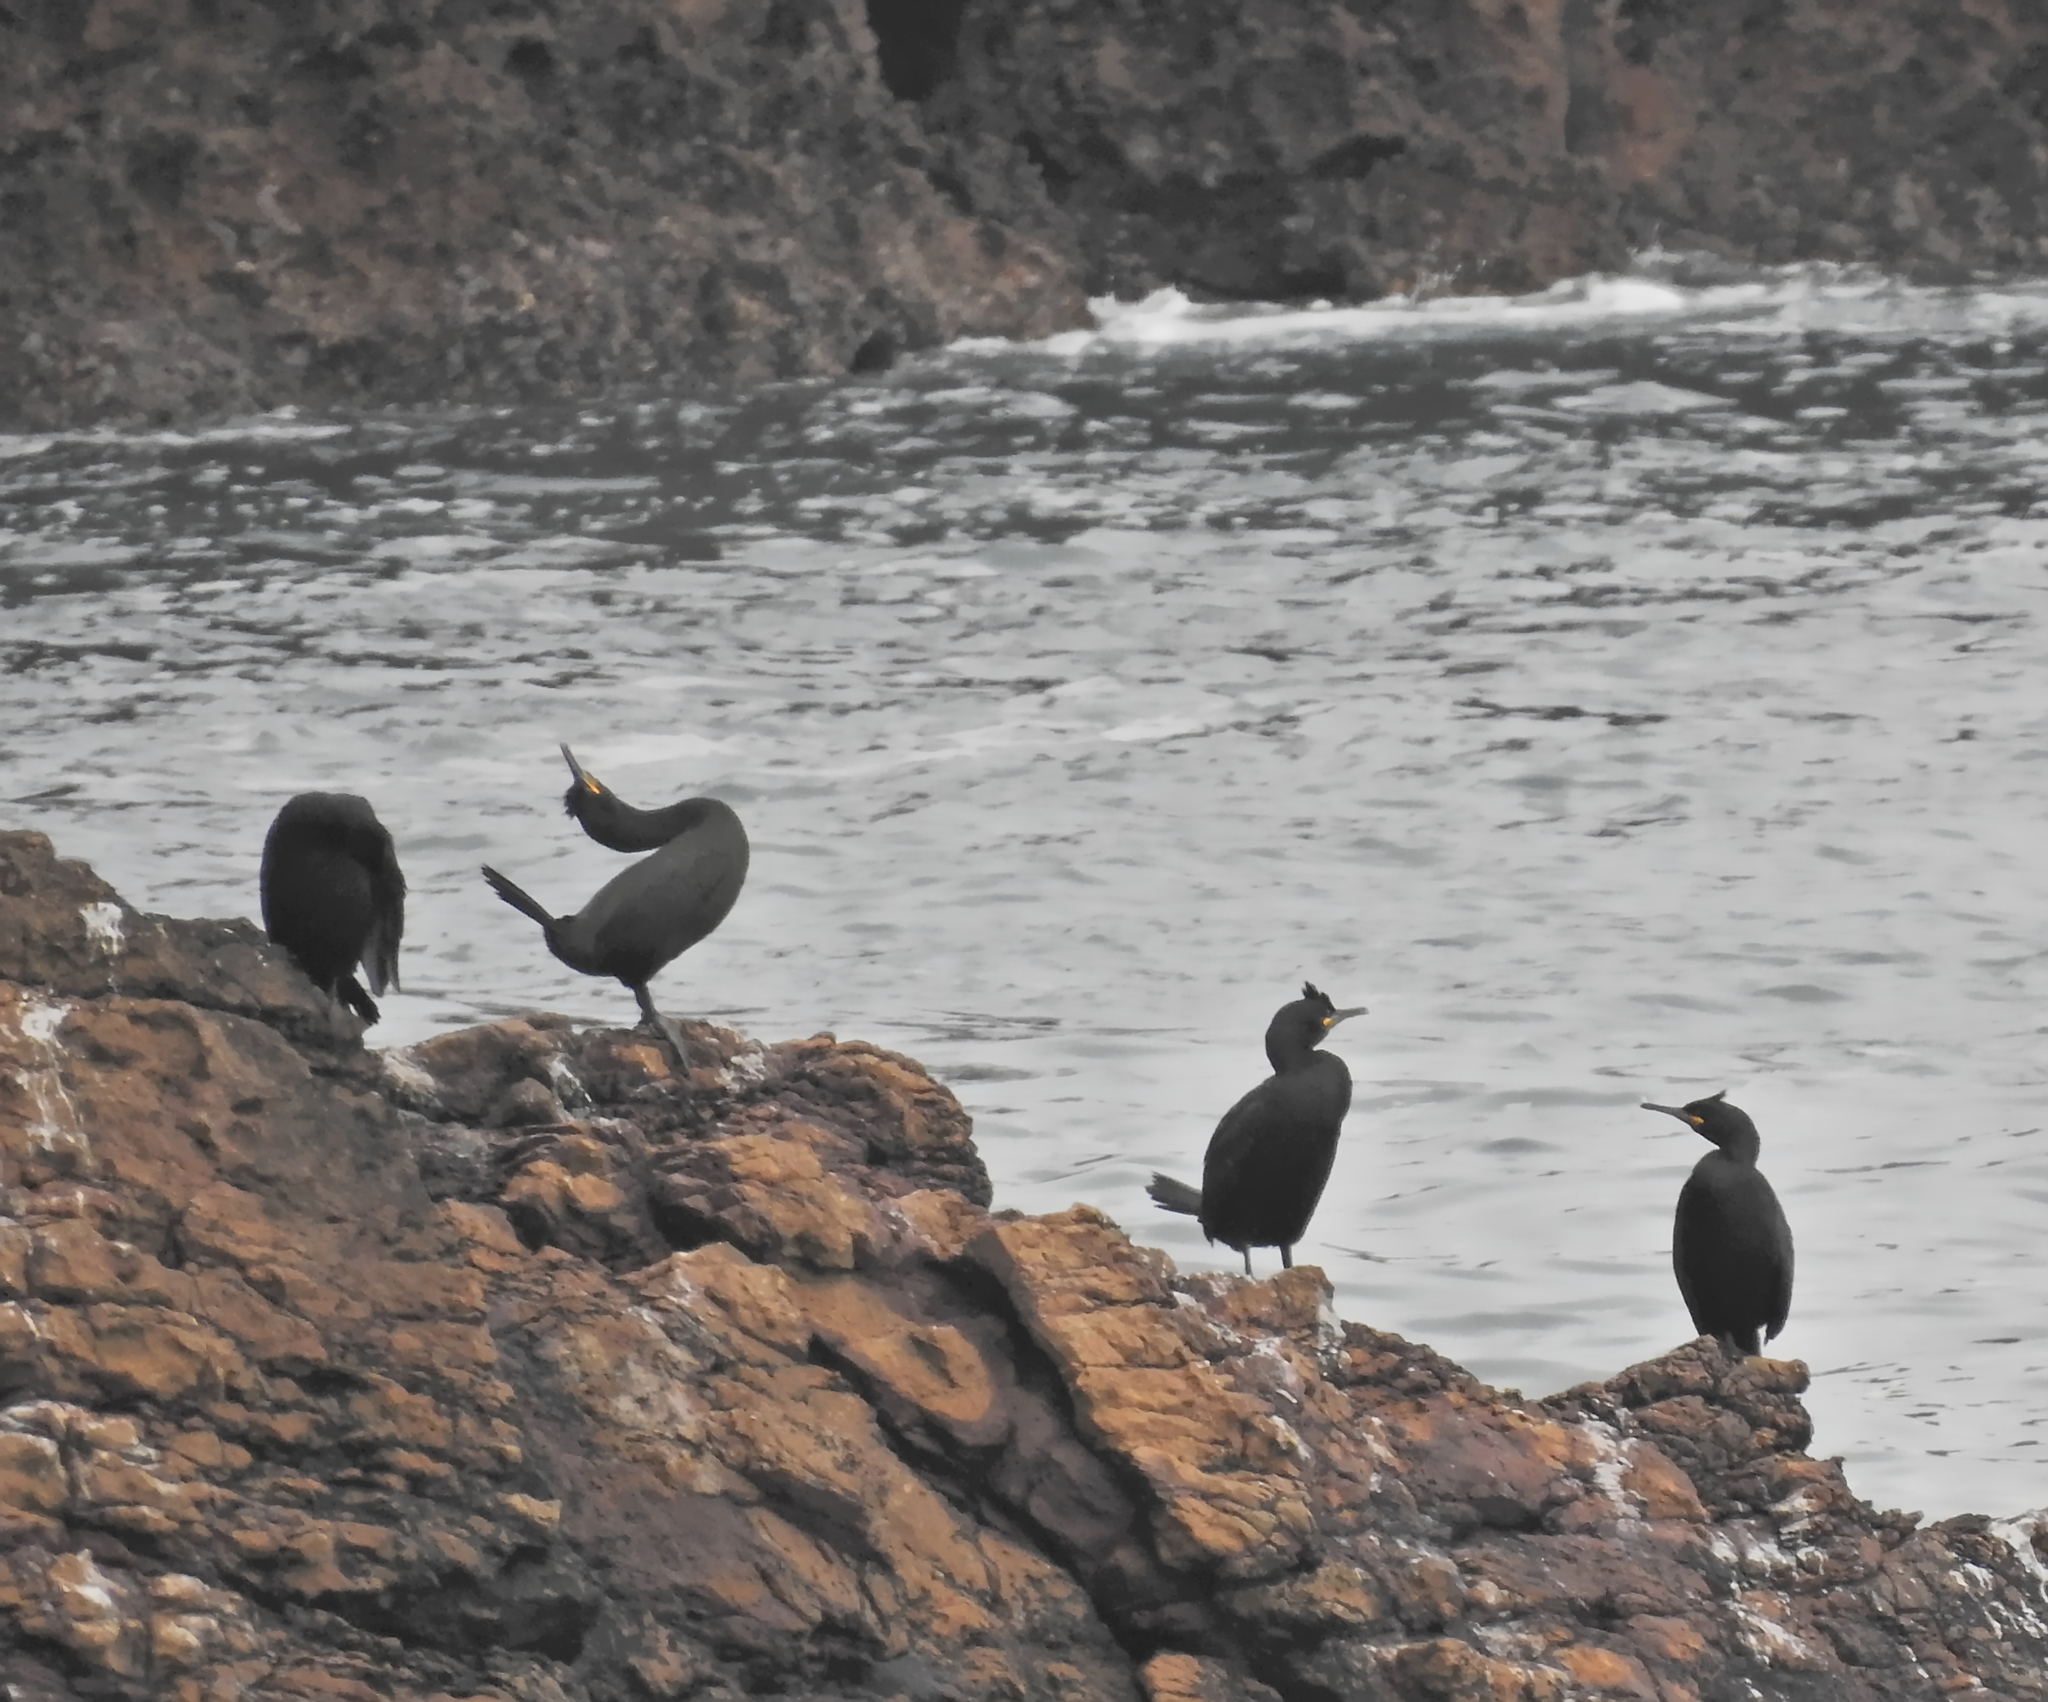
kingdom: Animalia
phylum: Chordata
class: Aves
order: Suliformes
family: Phalacrocoracidae
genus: Phalacrocorax
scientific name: Phalacrocorax aristotelis
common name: European shag
